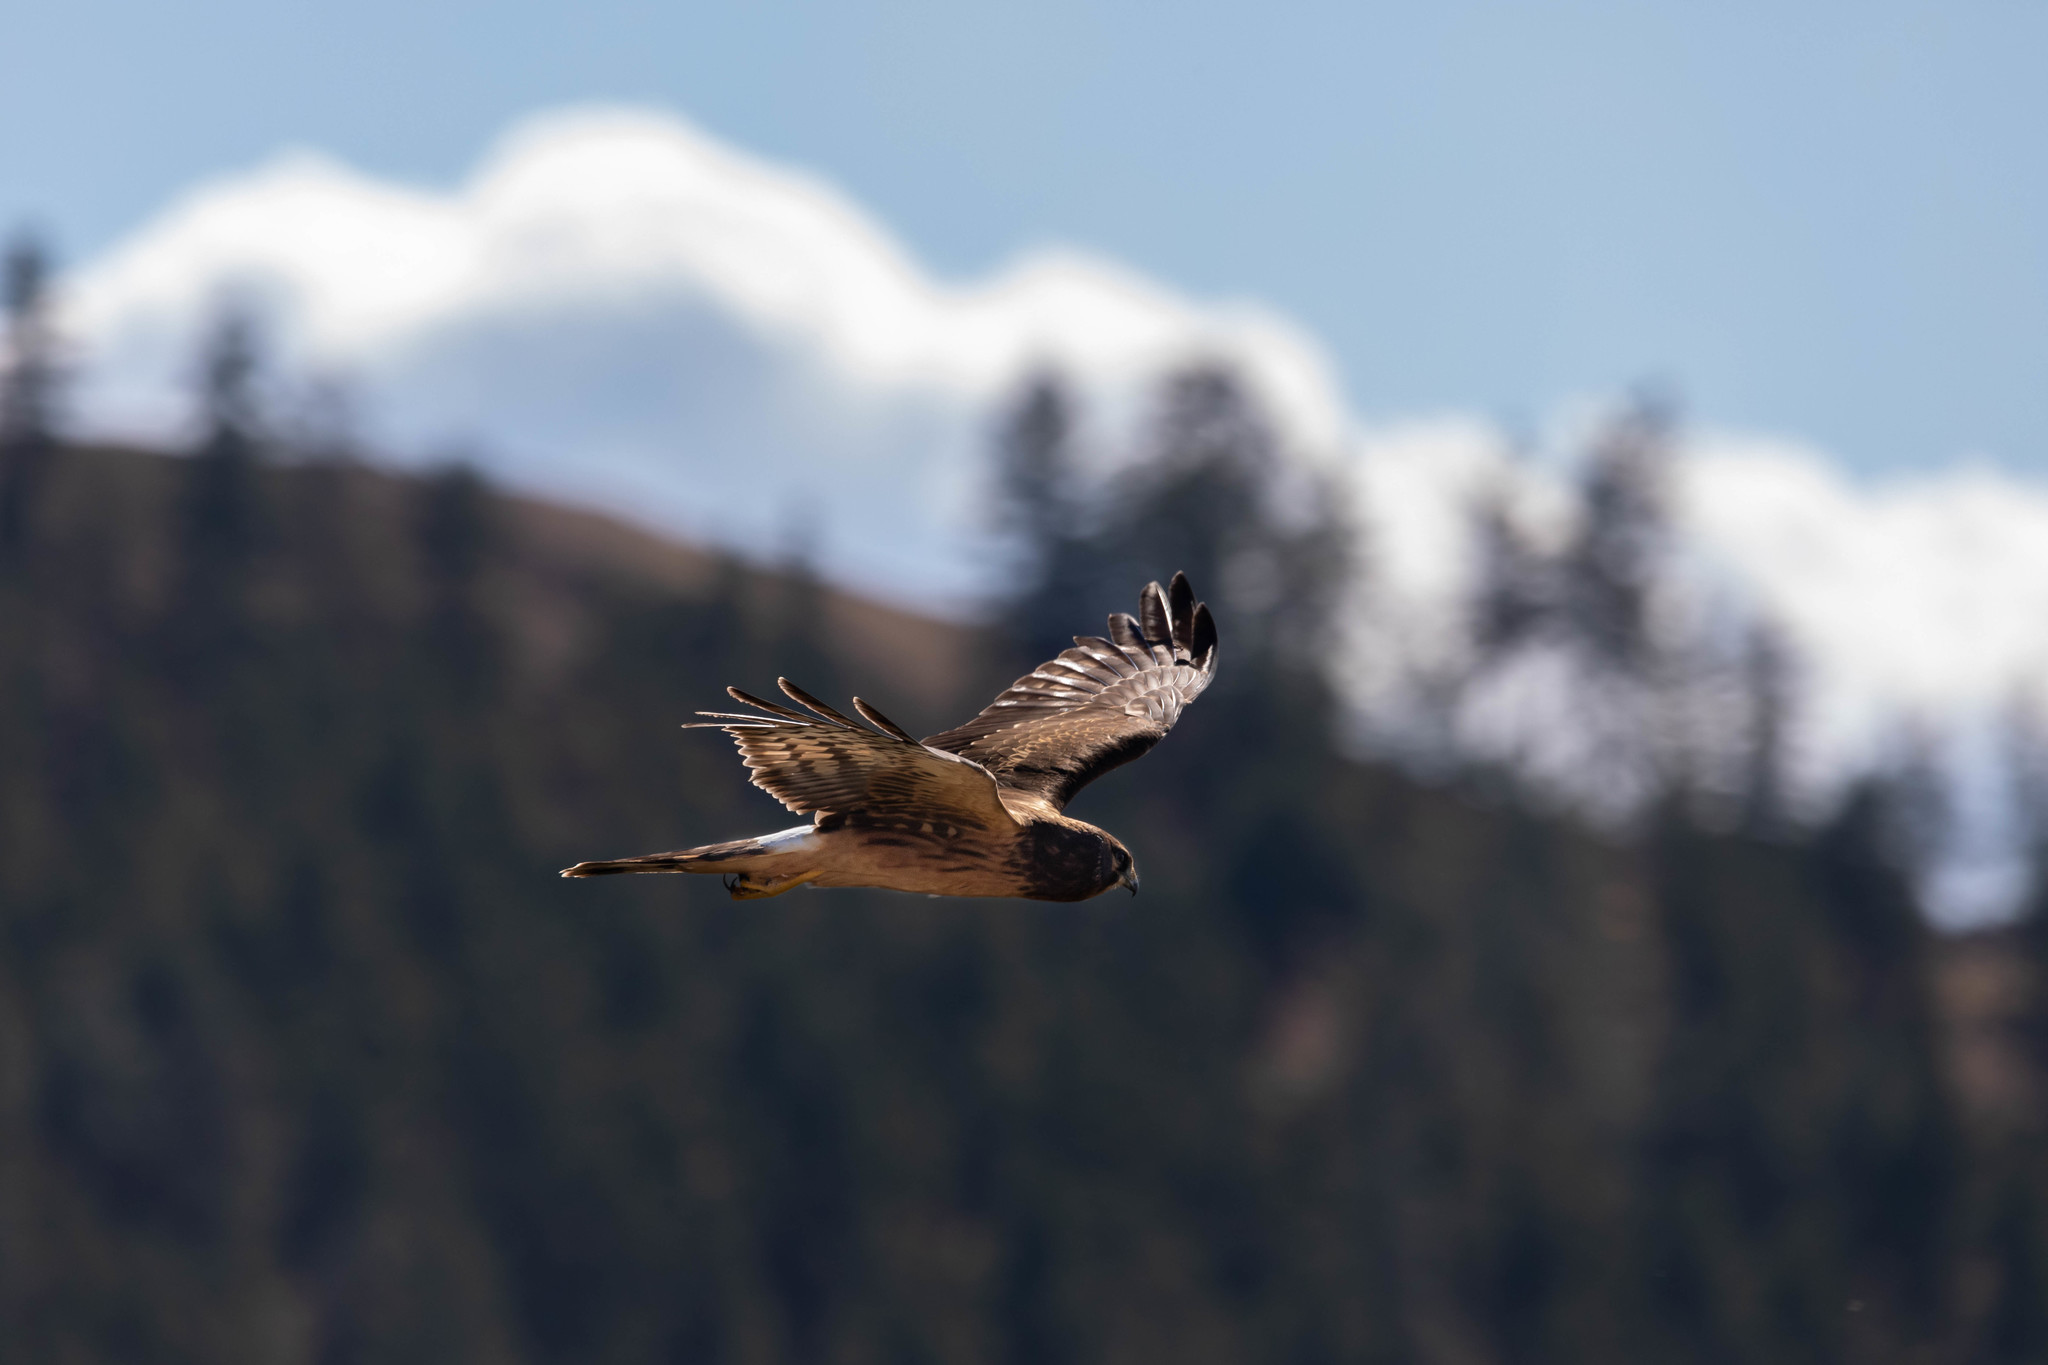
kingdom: Animalia
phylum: Chordata
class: Aves
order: Accipitriformes
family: Accipitridae
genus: Circus
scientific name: Circus cyaneus
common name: Hen harrier
